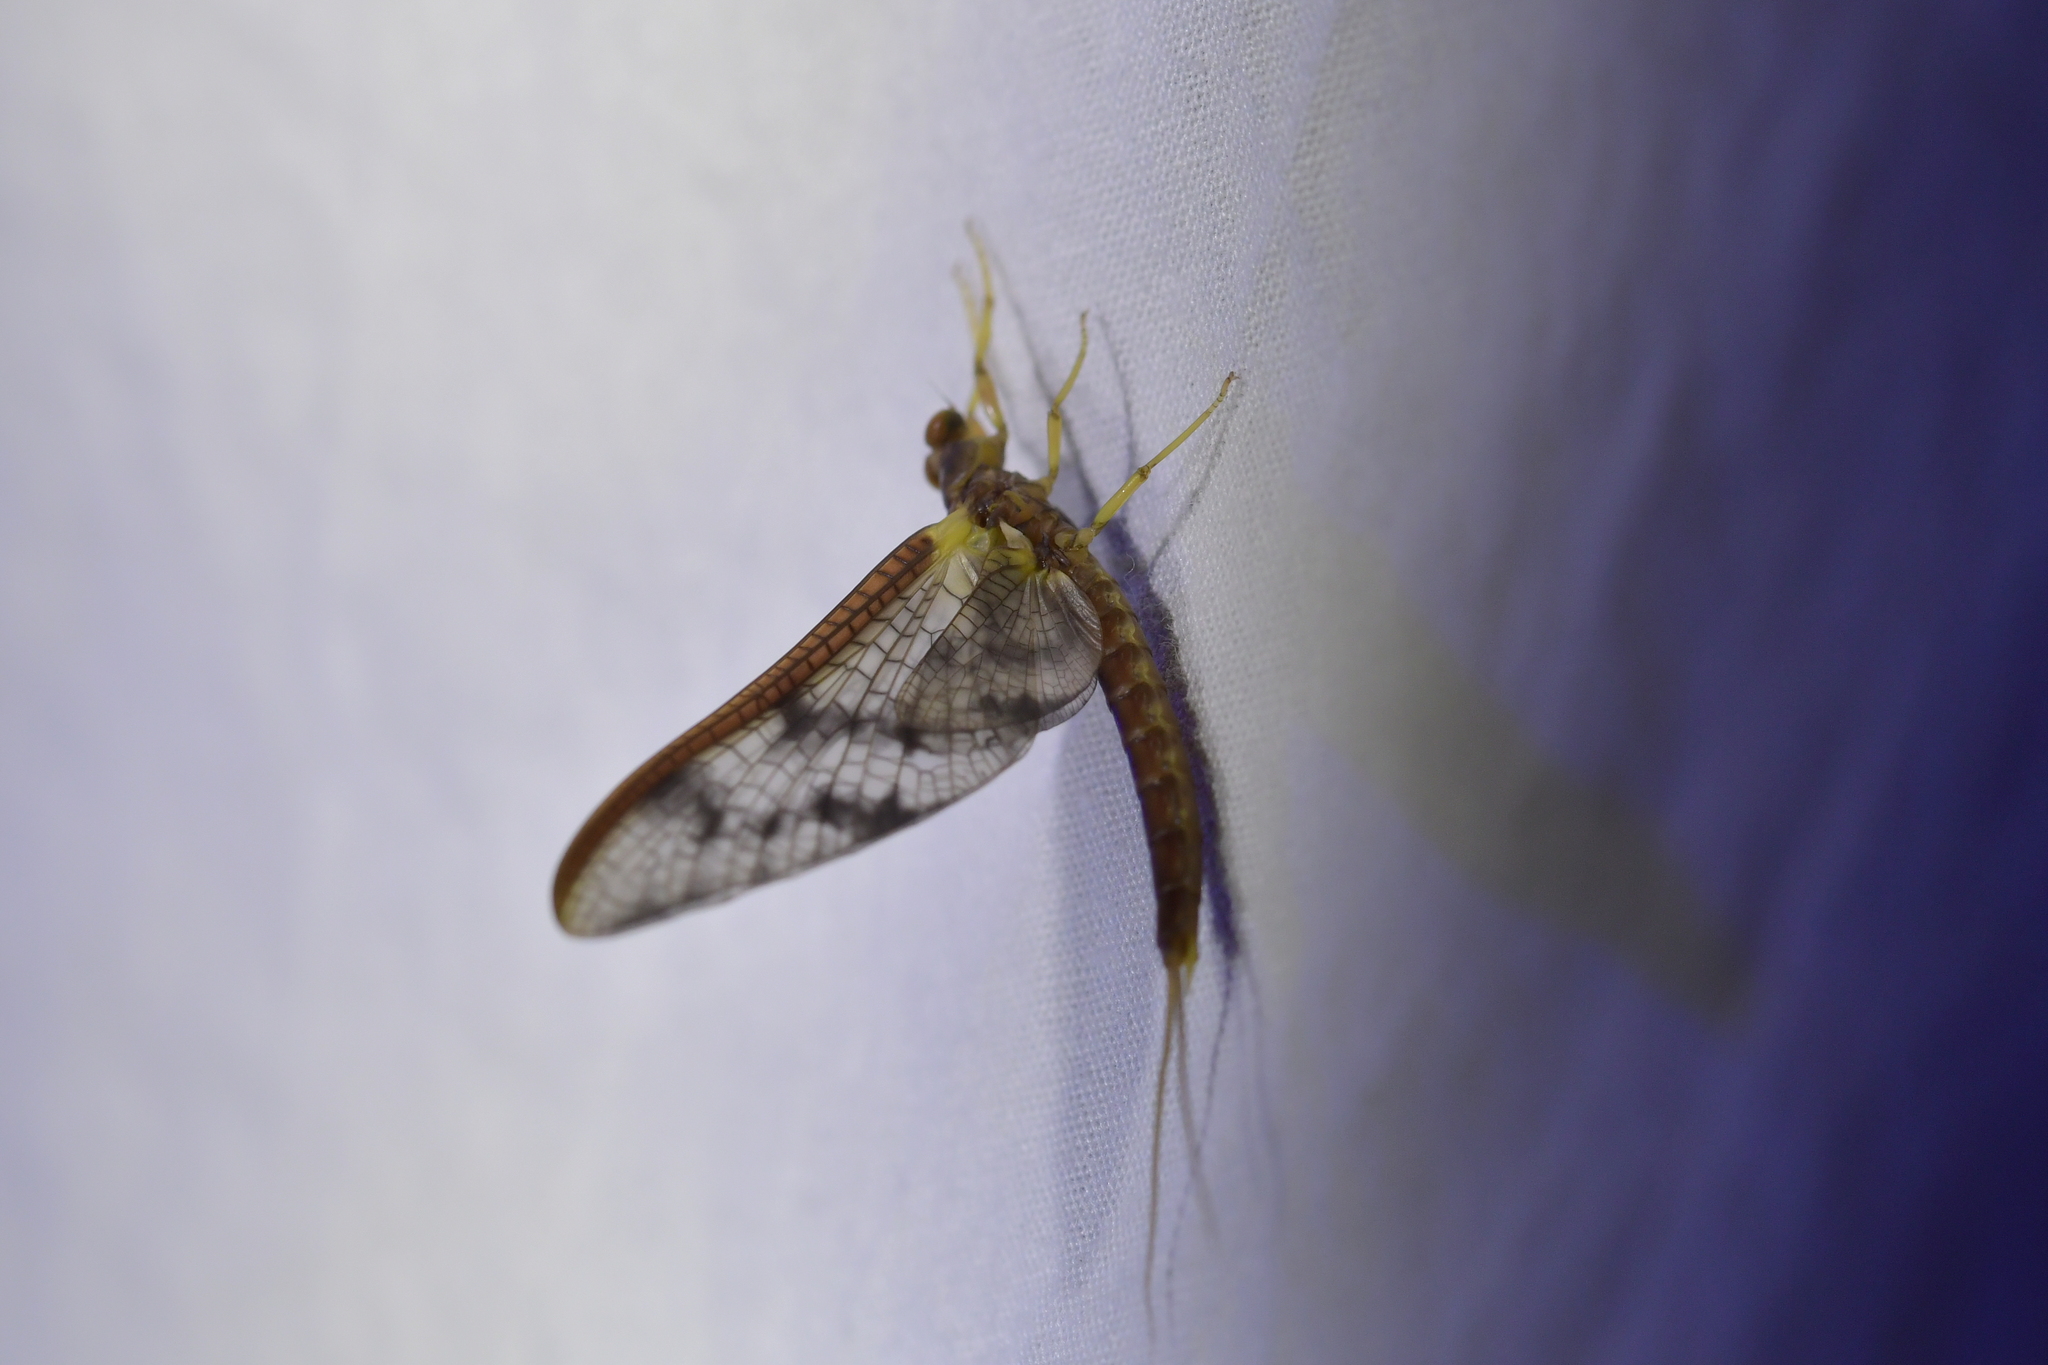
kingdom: Animalia
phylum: Arthropoda
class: Insecta
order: Ephemeroptera
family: Ichthybotidae
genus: Ichthybotus
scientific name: Ichthybotus hudsoni
